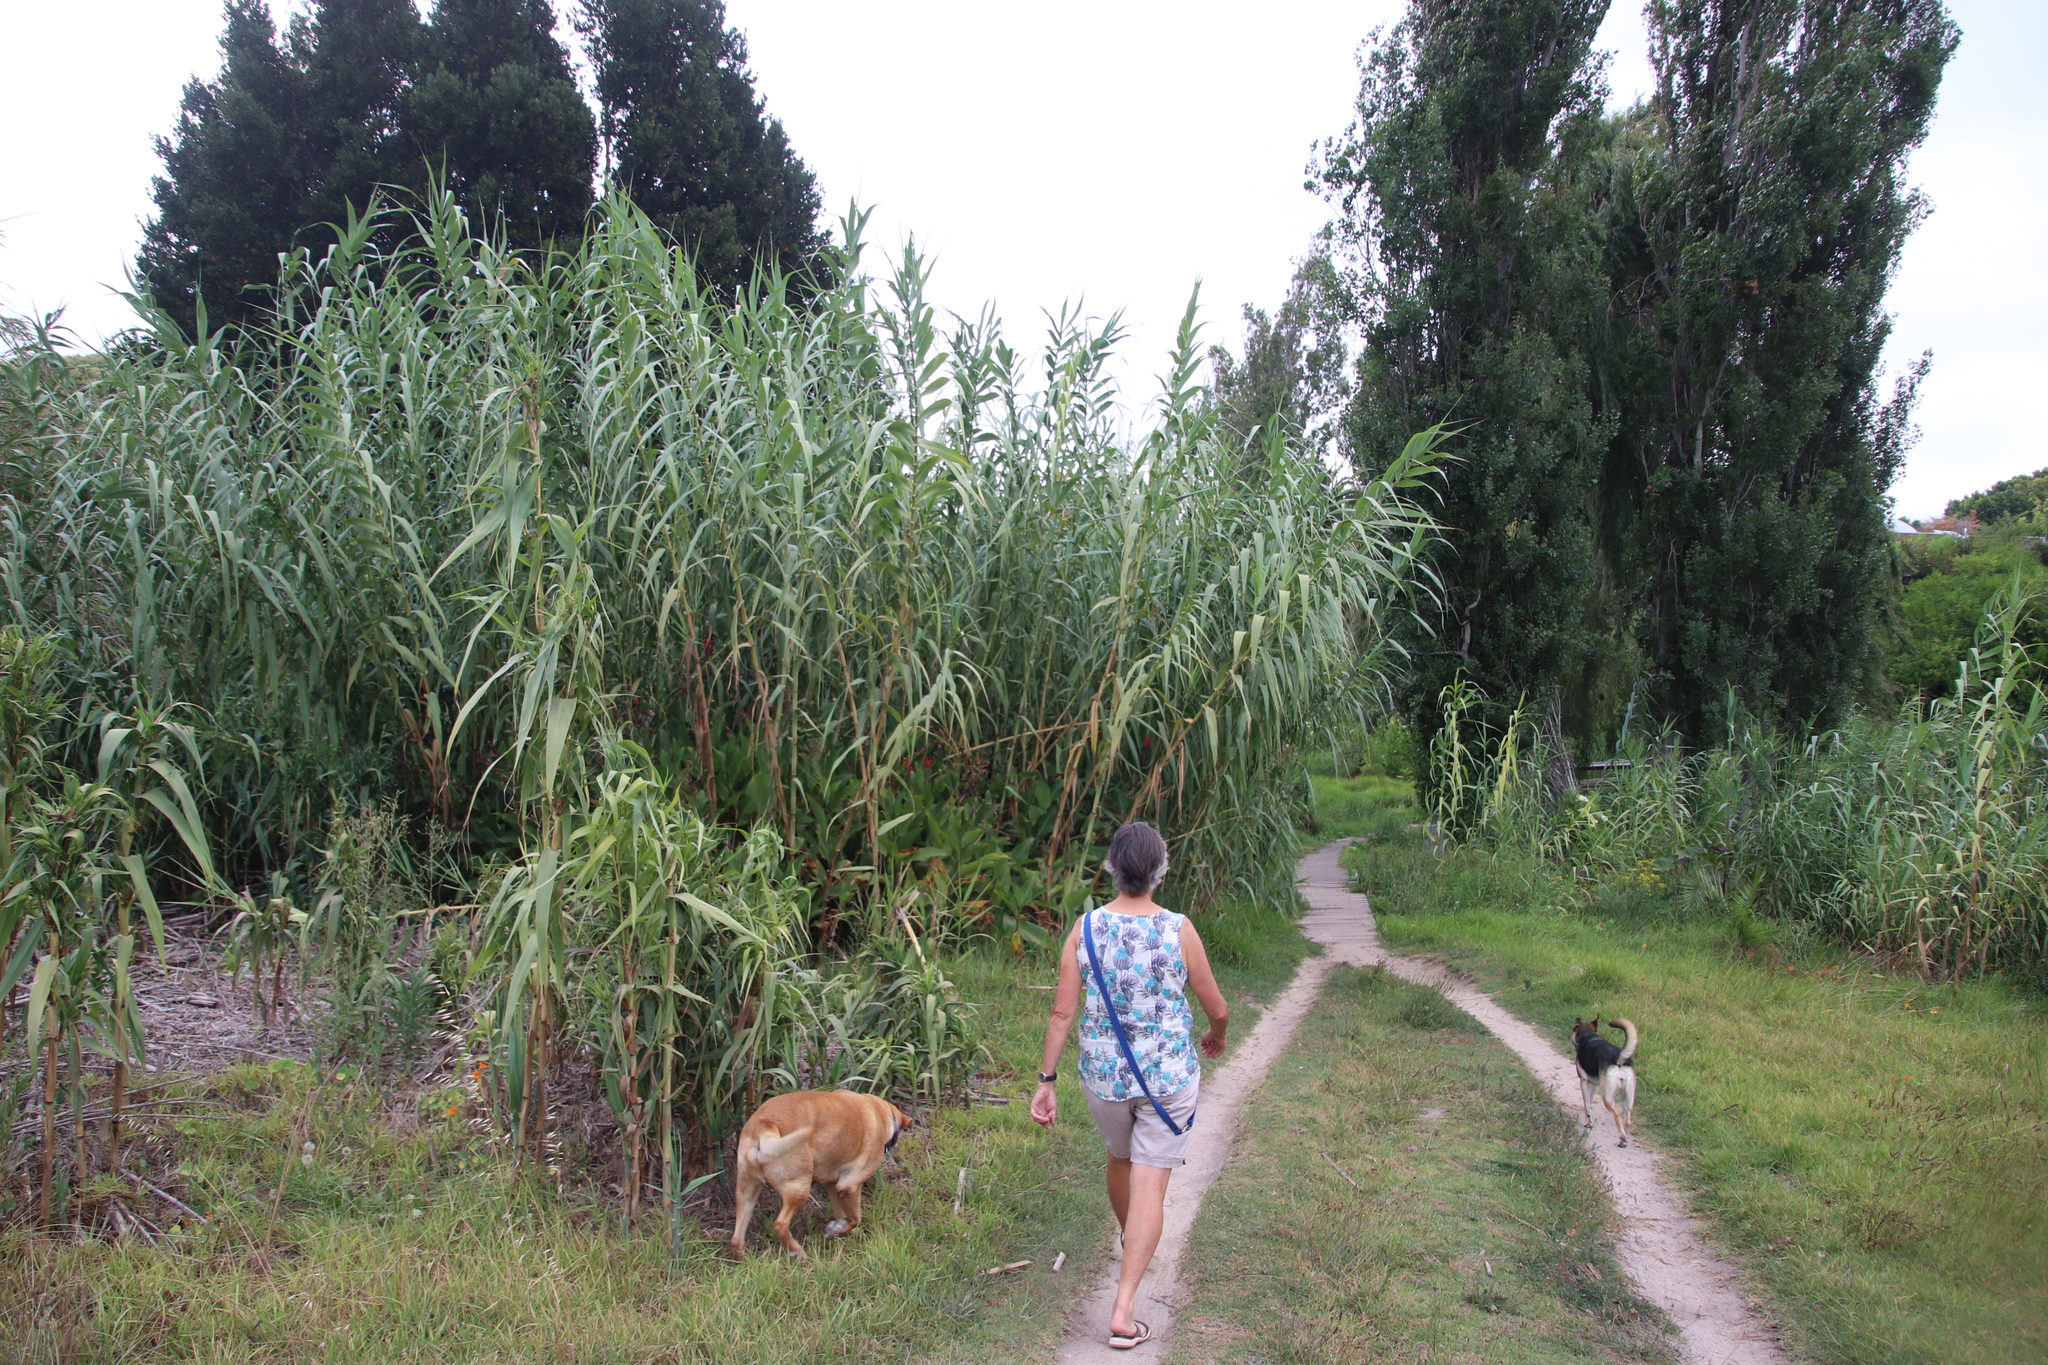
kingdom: Plantae
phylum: Tracheophyta
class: Liliopsida
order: Poales
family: Poaceae
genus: Arundo
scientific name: Arundo donax
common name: Giant reed
